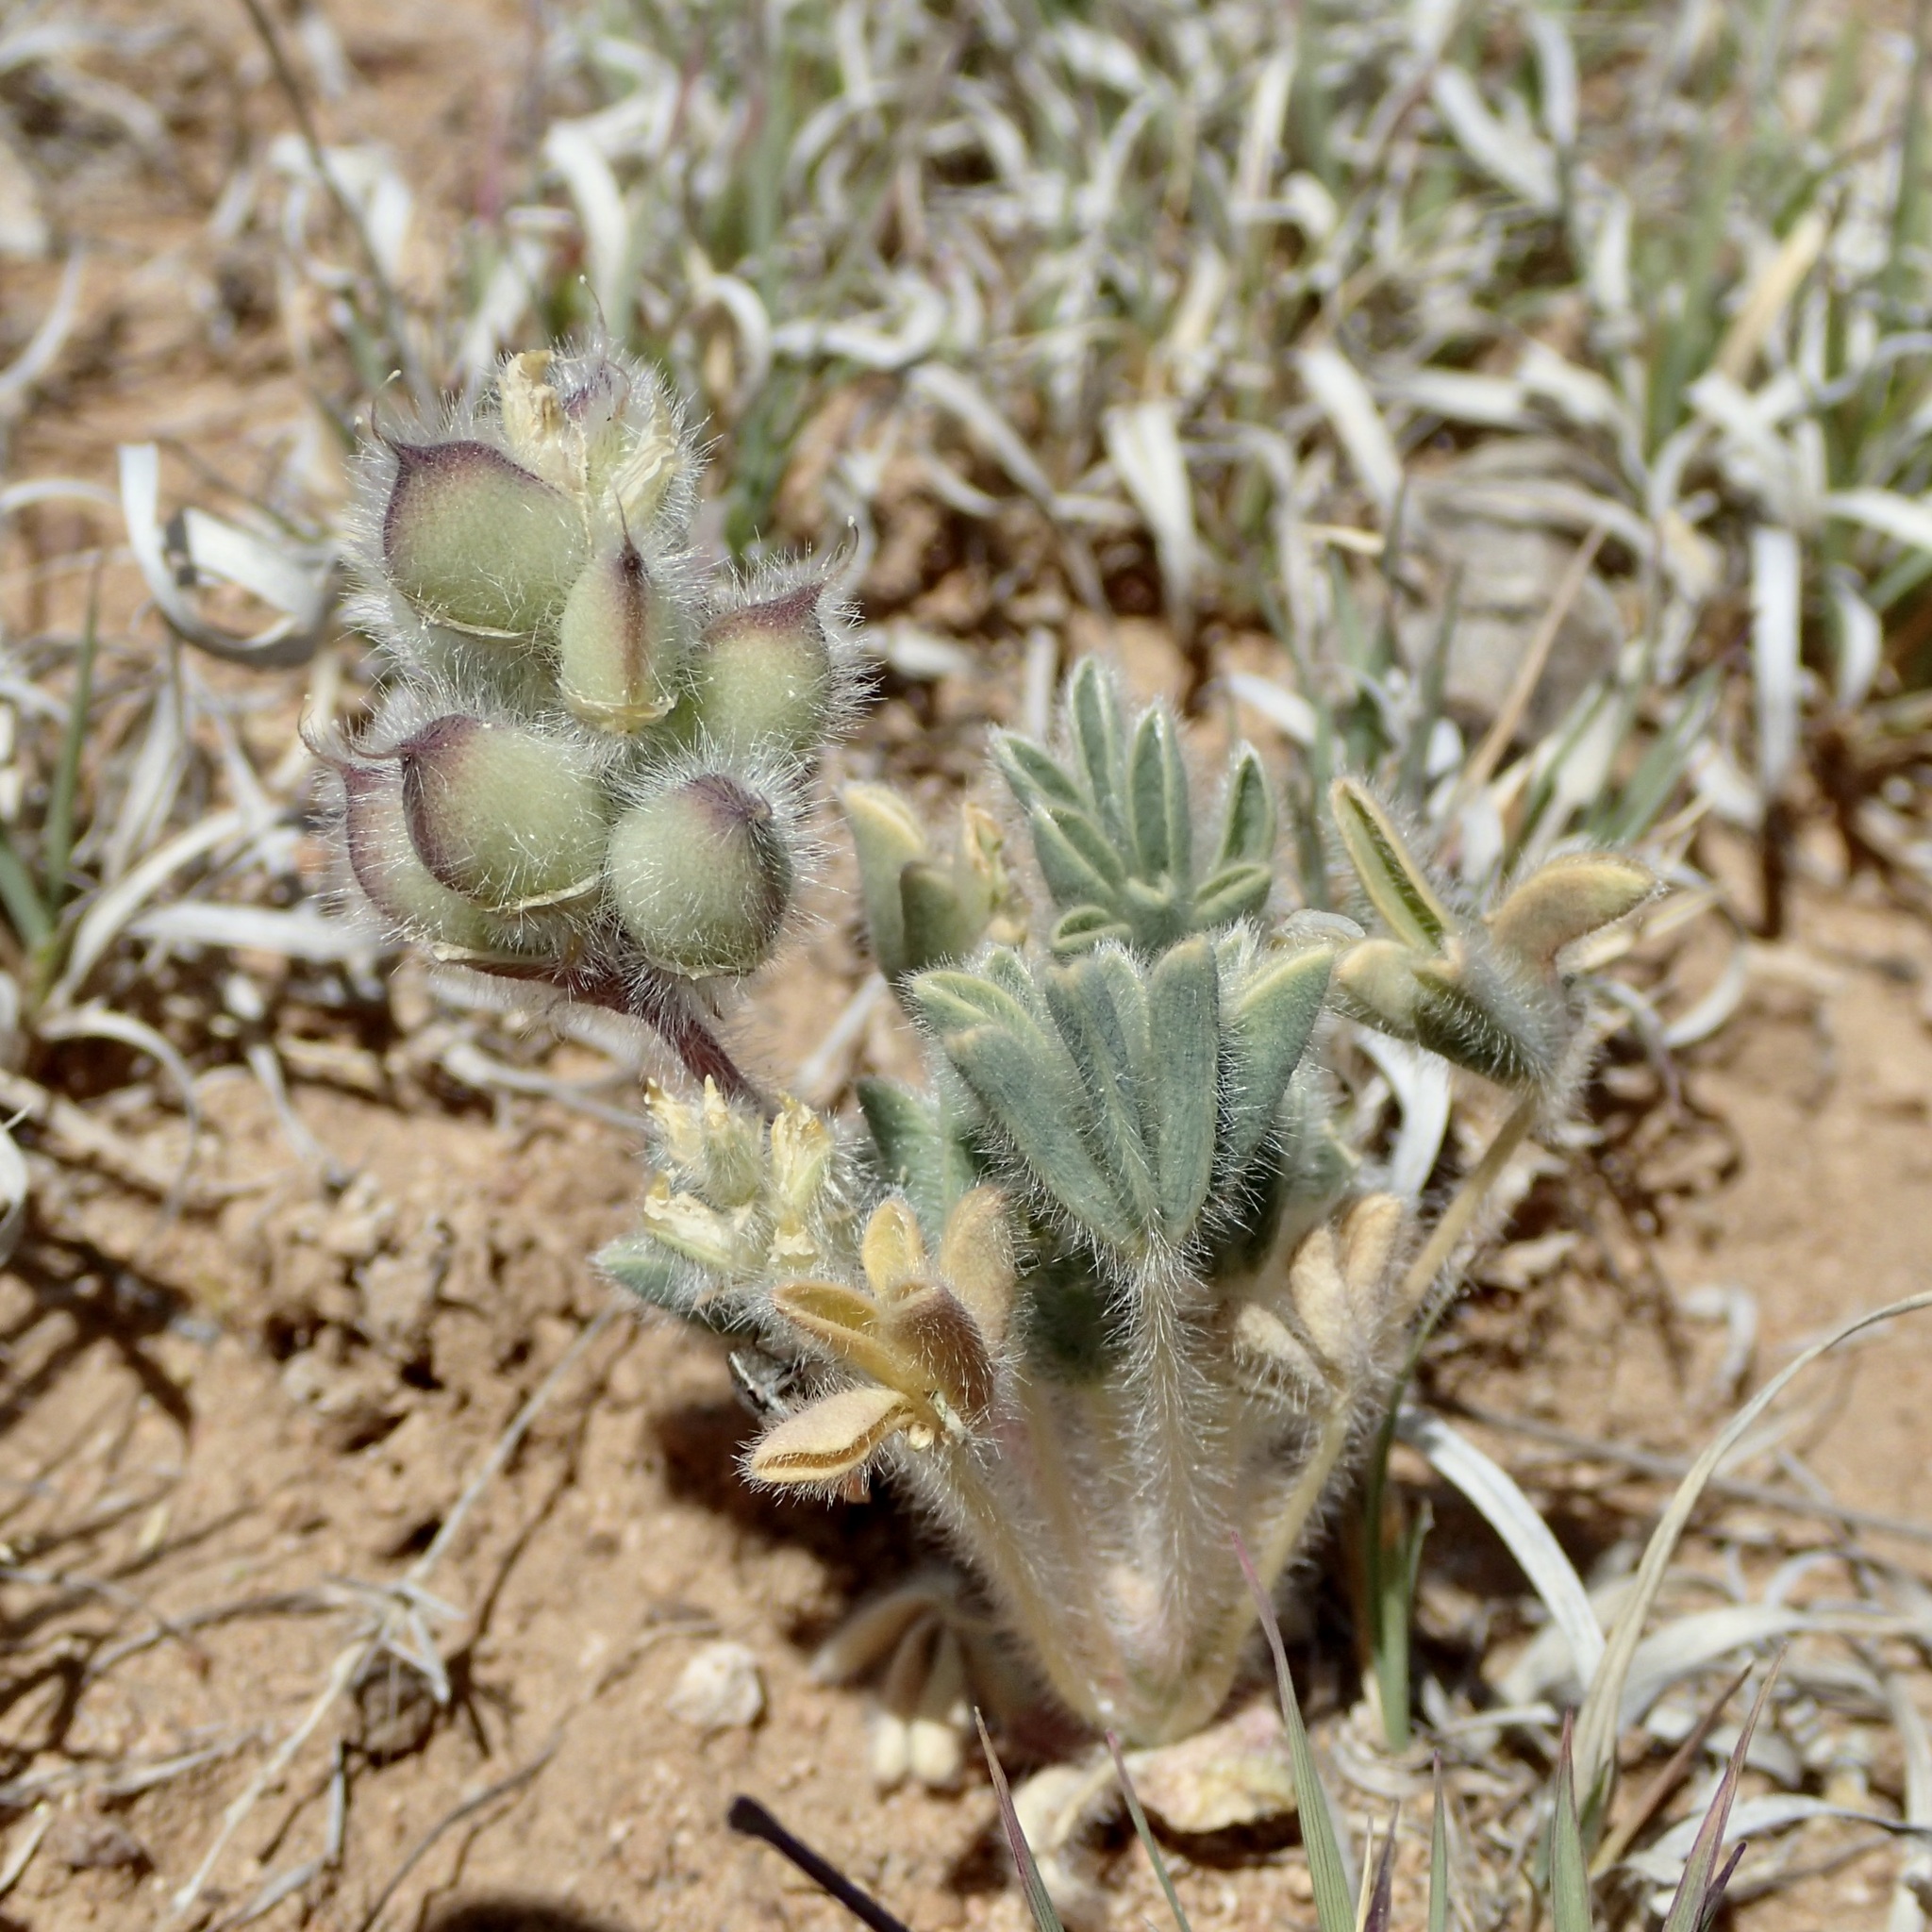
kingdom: Plantae
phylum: Tracheophyta
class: Magnoliopsida
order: Fabales
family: Fabaceae
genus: Lupinus
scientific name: Lupinus brevicaulis
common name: Sand lupine
